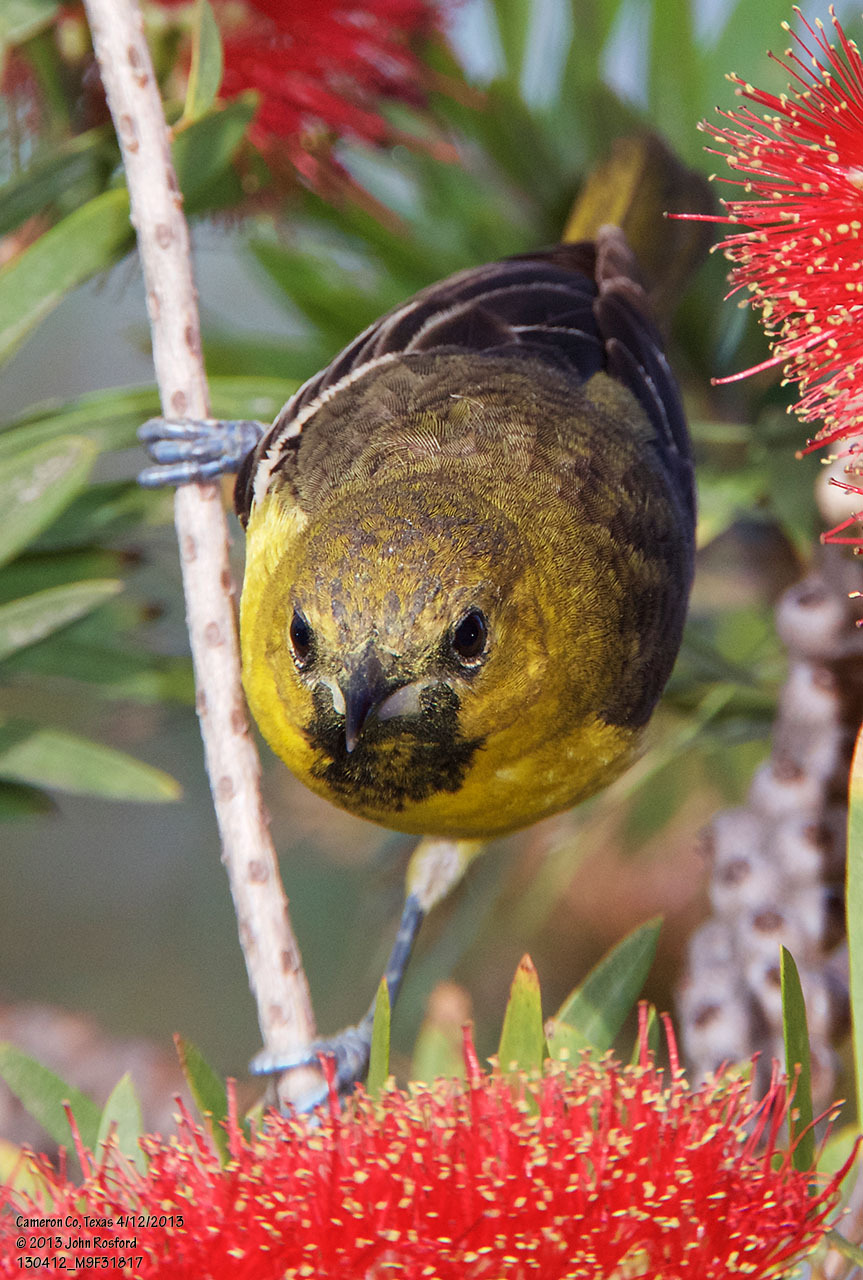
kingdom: Animalia
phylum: Chordata
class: Aves
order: Passeriformes
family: Icteridae
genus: Icterus
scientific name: Icterus spurius
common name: Orchard oriole
